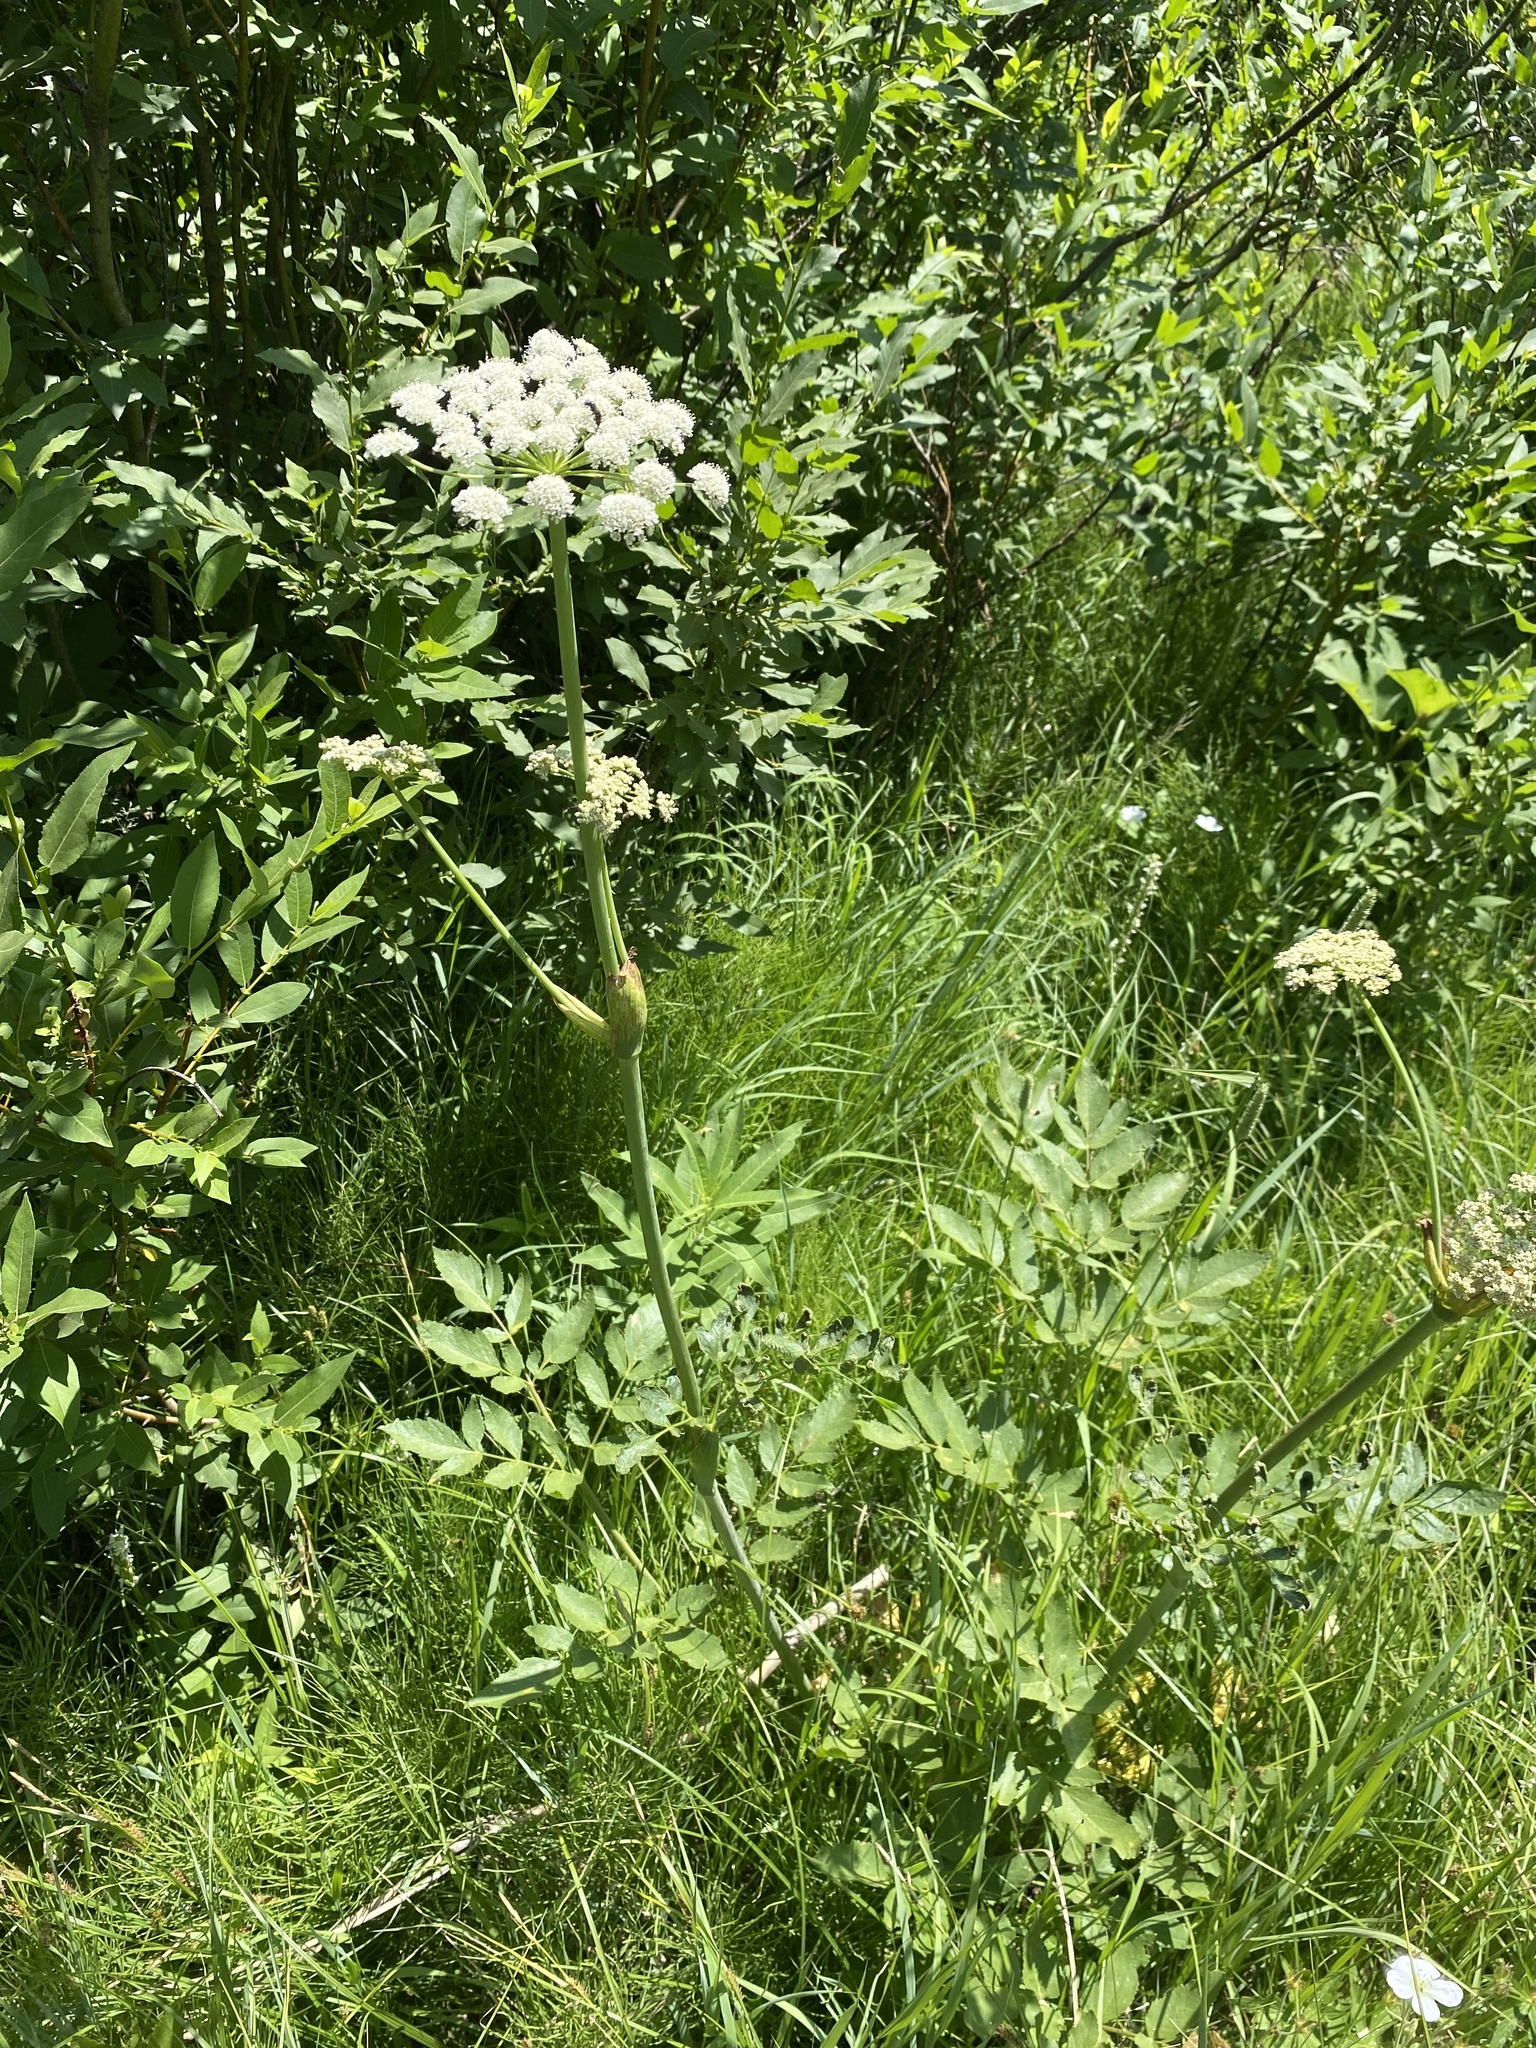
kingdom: Plantae
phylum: Tracheophyta
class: Magnoliopsida
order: Apiales
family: Apiaceae
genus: Angelica
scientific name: Angelica arguta
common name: Lyall's angelica
